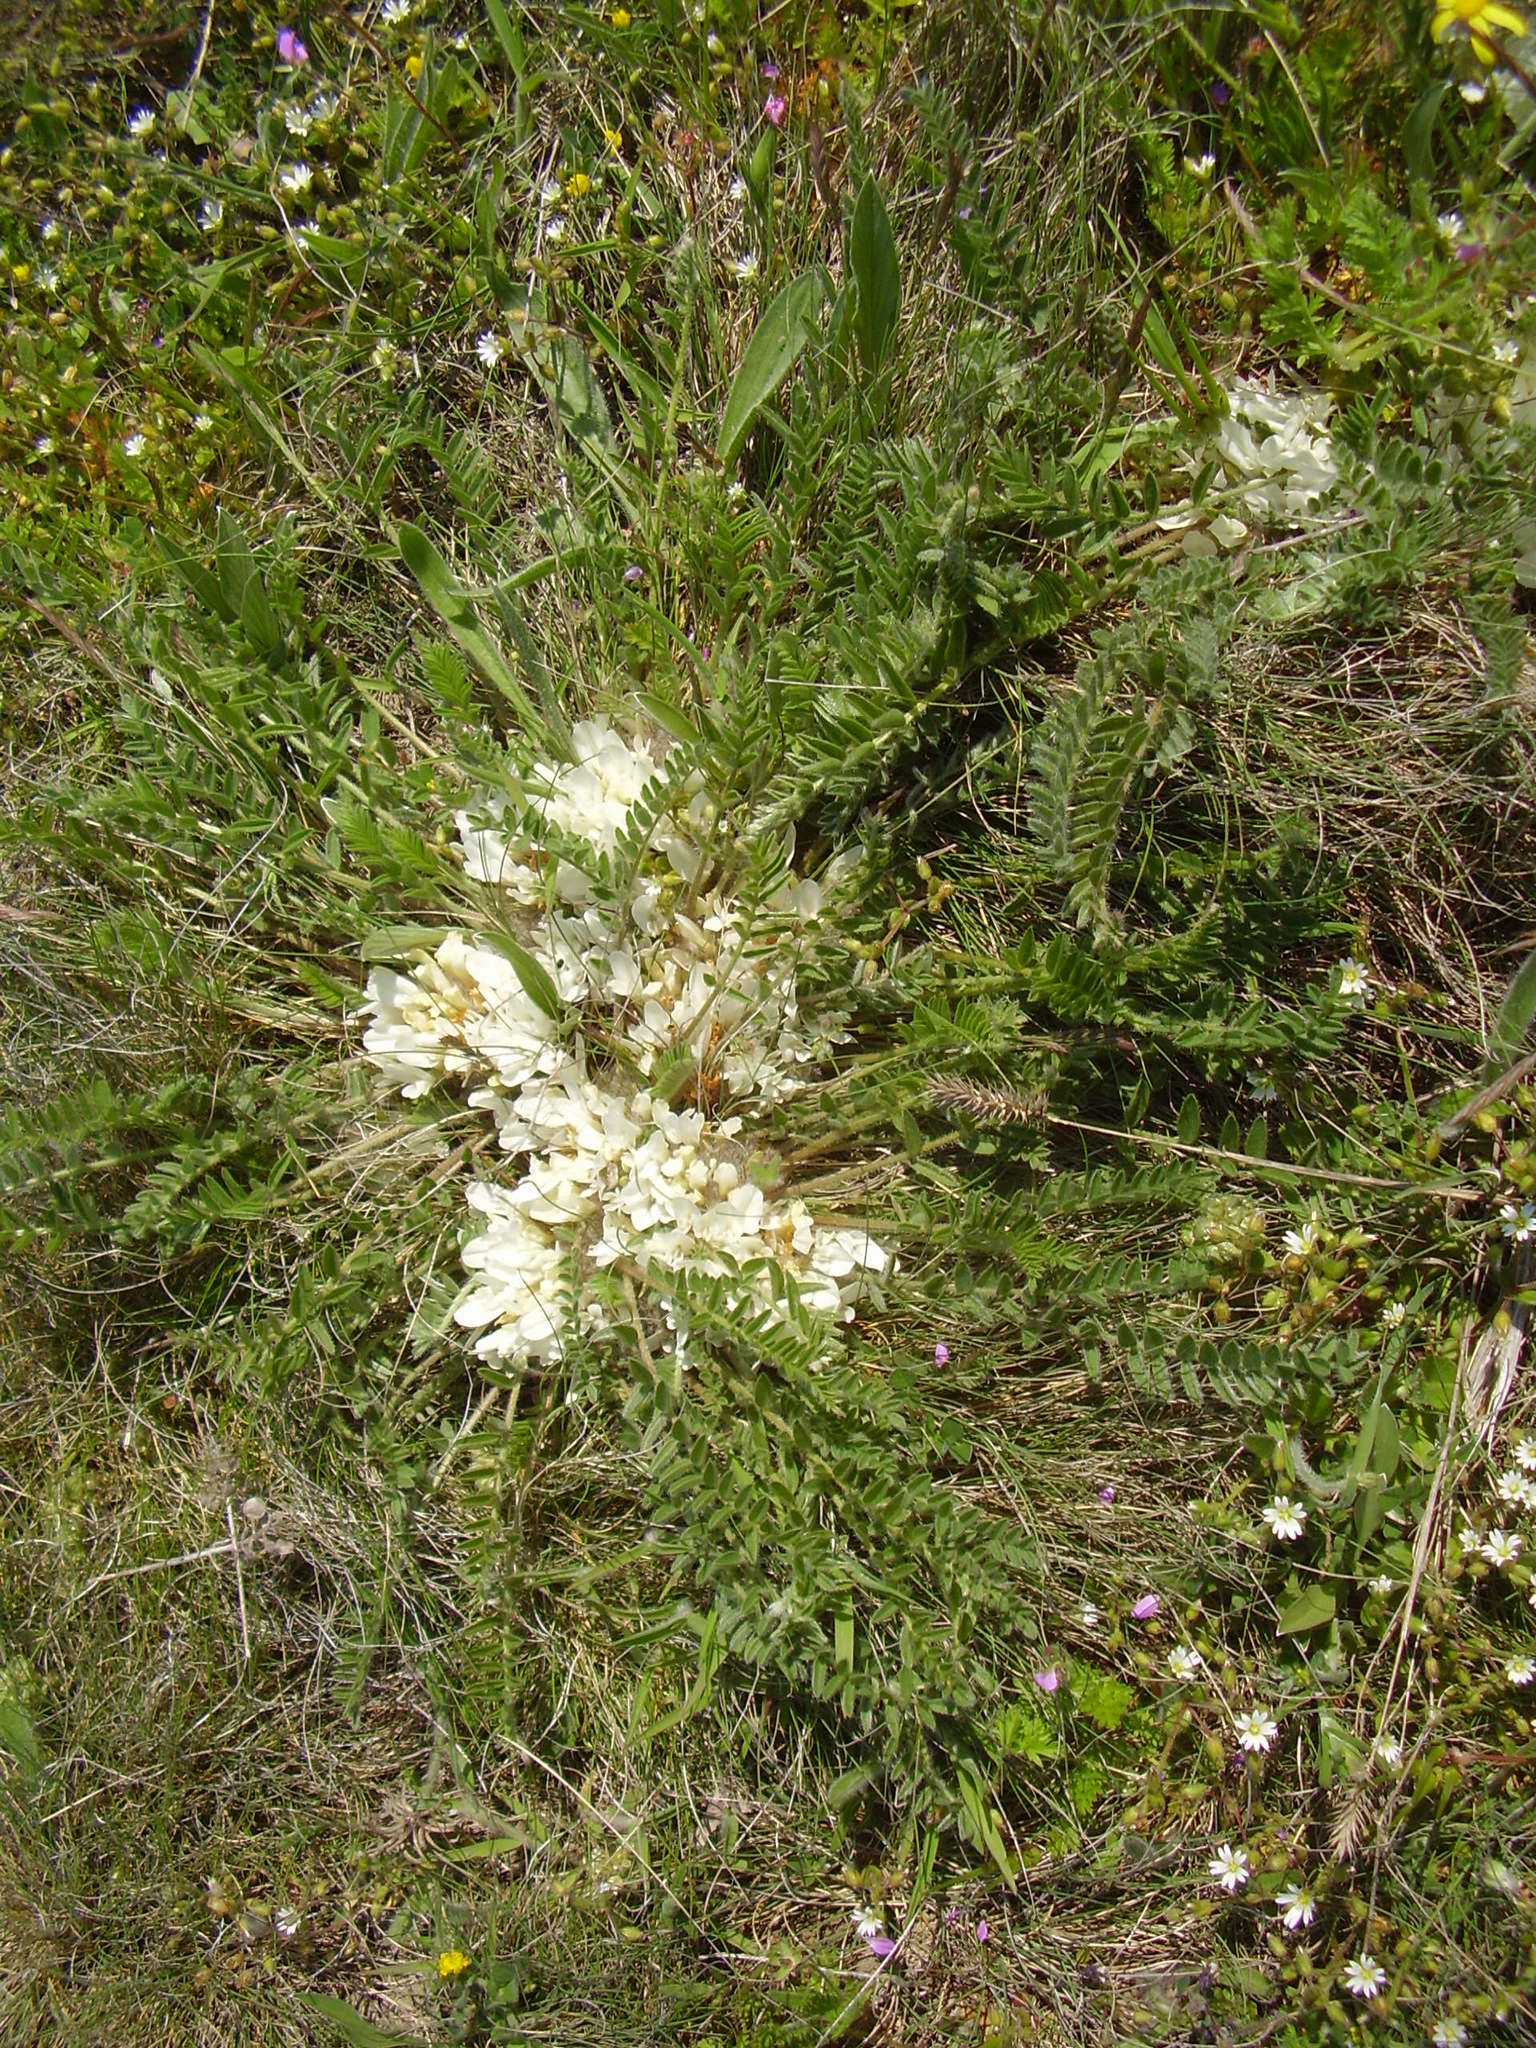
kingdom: Plantae
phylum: Tracheophyta
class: Magnoliopsida
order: Fabales
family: Fabaceae
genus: Astragalus
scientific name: Astragalus rupifragus
